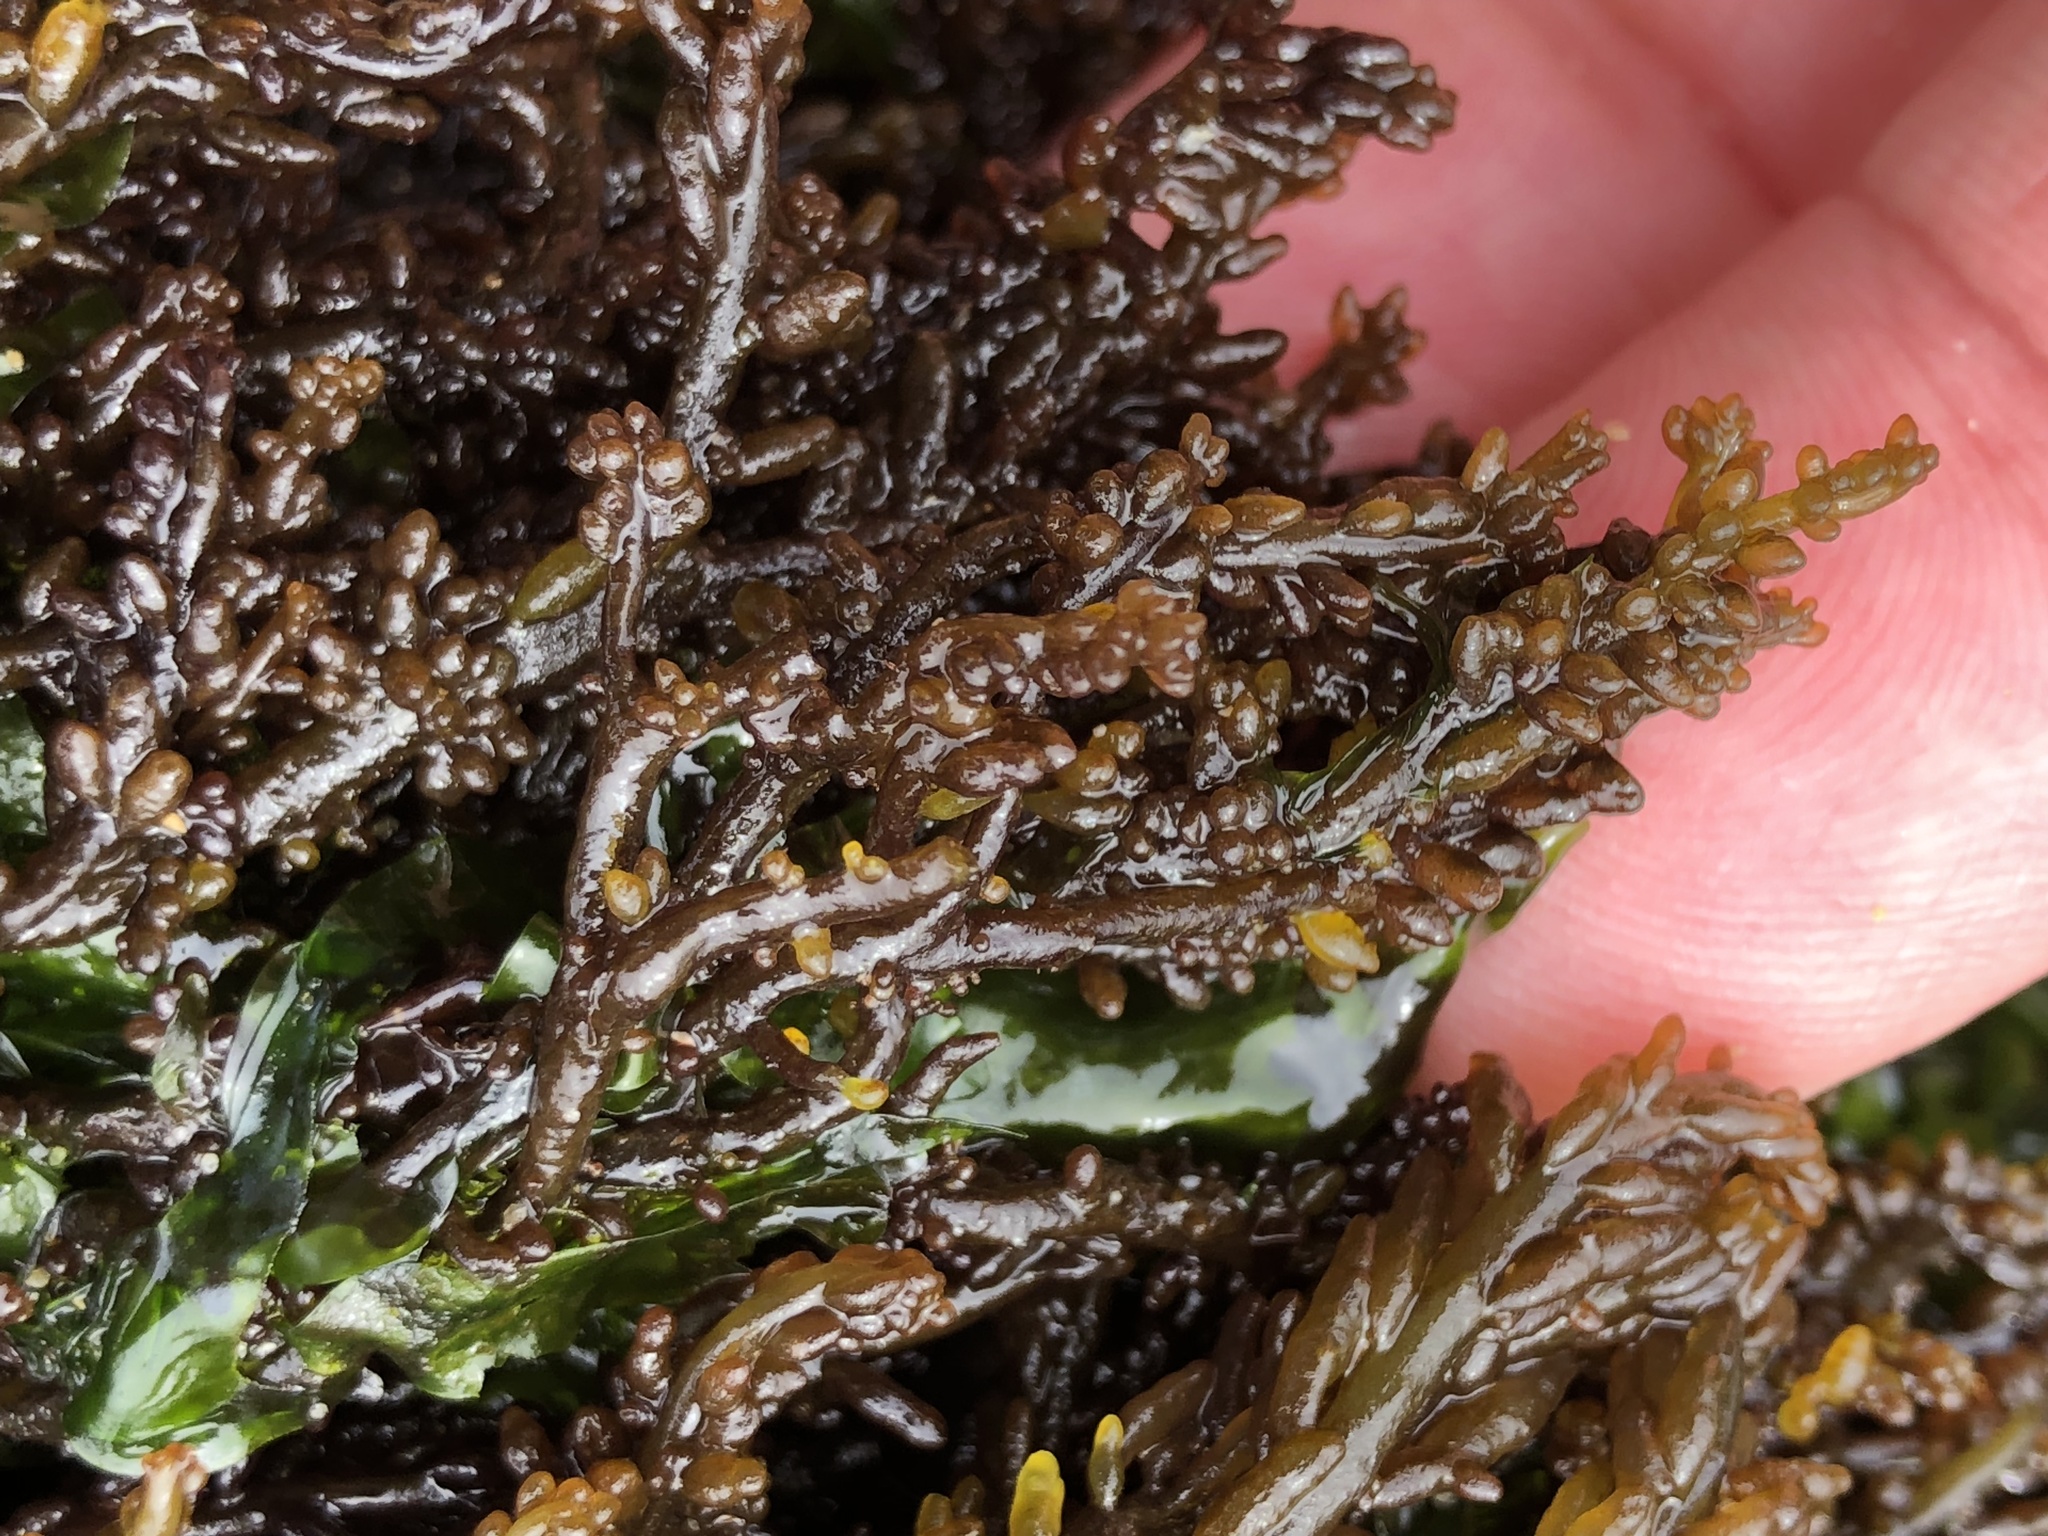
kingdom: Plantae
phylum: Rhodophyta
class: Florideophyceae
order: Rhodymeniales
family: Champiaceae
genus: Neogastroclonium
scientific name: Neogastroclonium subarticulatum
